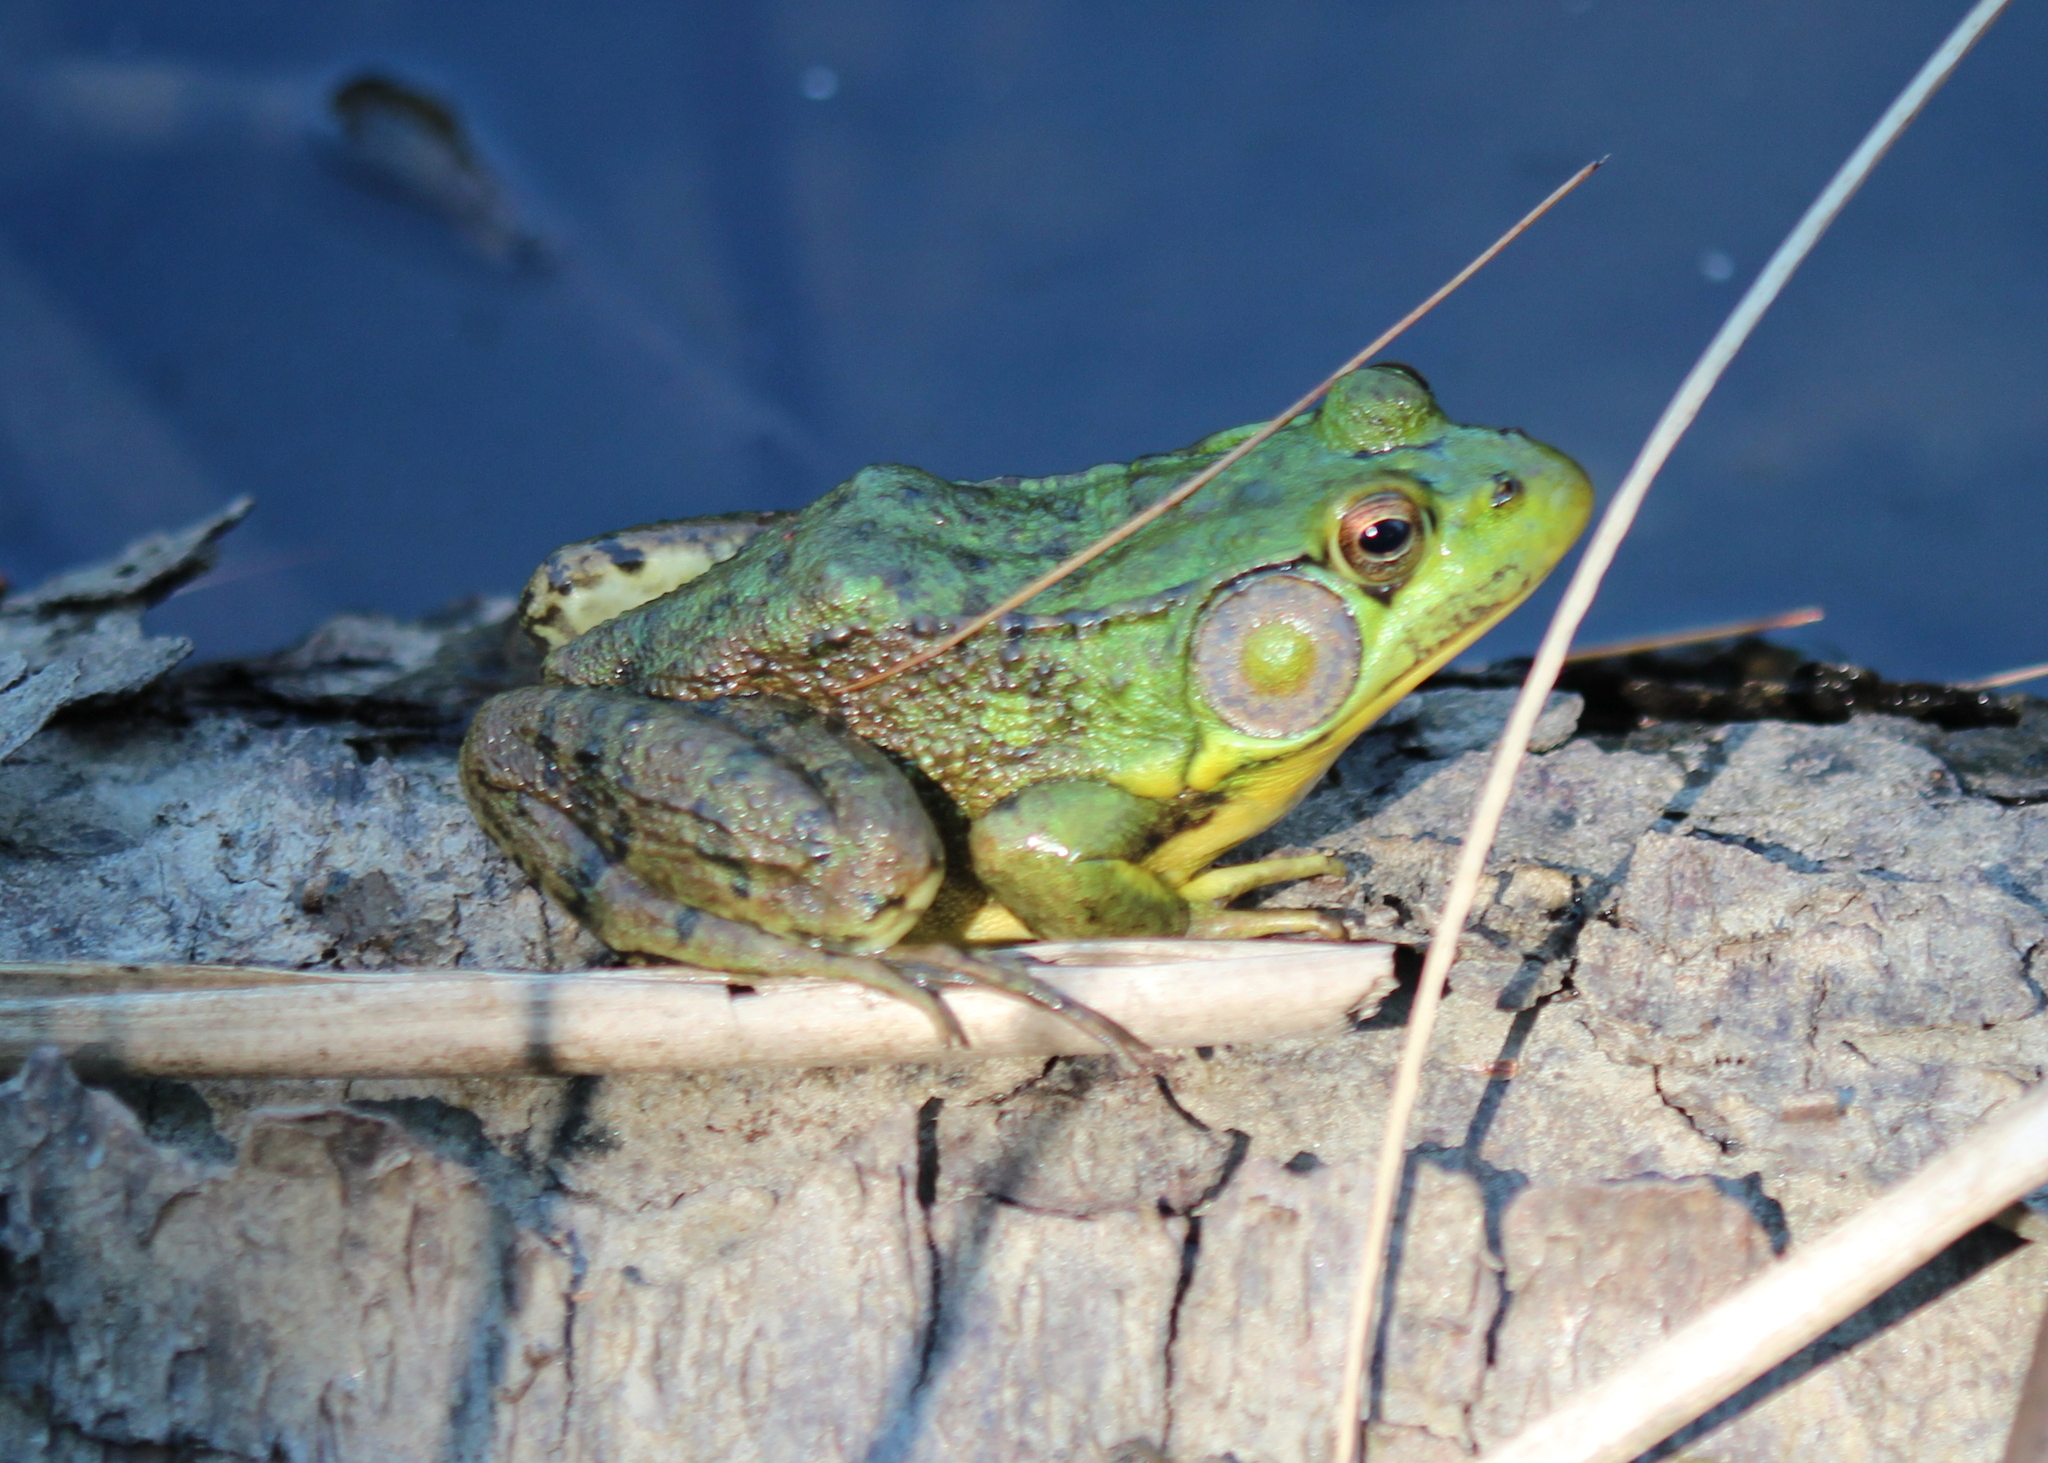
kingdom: Animalia
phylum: Chordata
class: Amphibia
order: Anura
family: Ranidae
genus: Lithobates
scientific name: Lithobates clamitans
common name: Green frog
